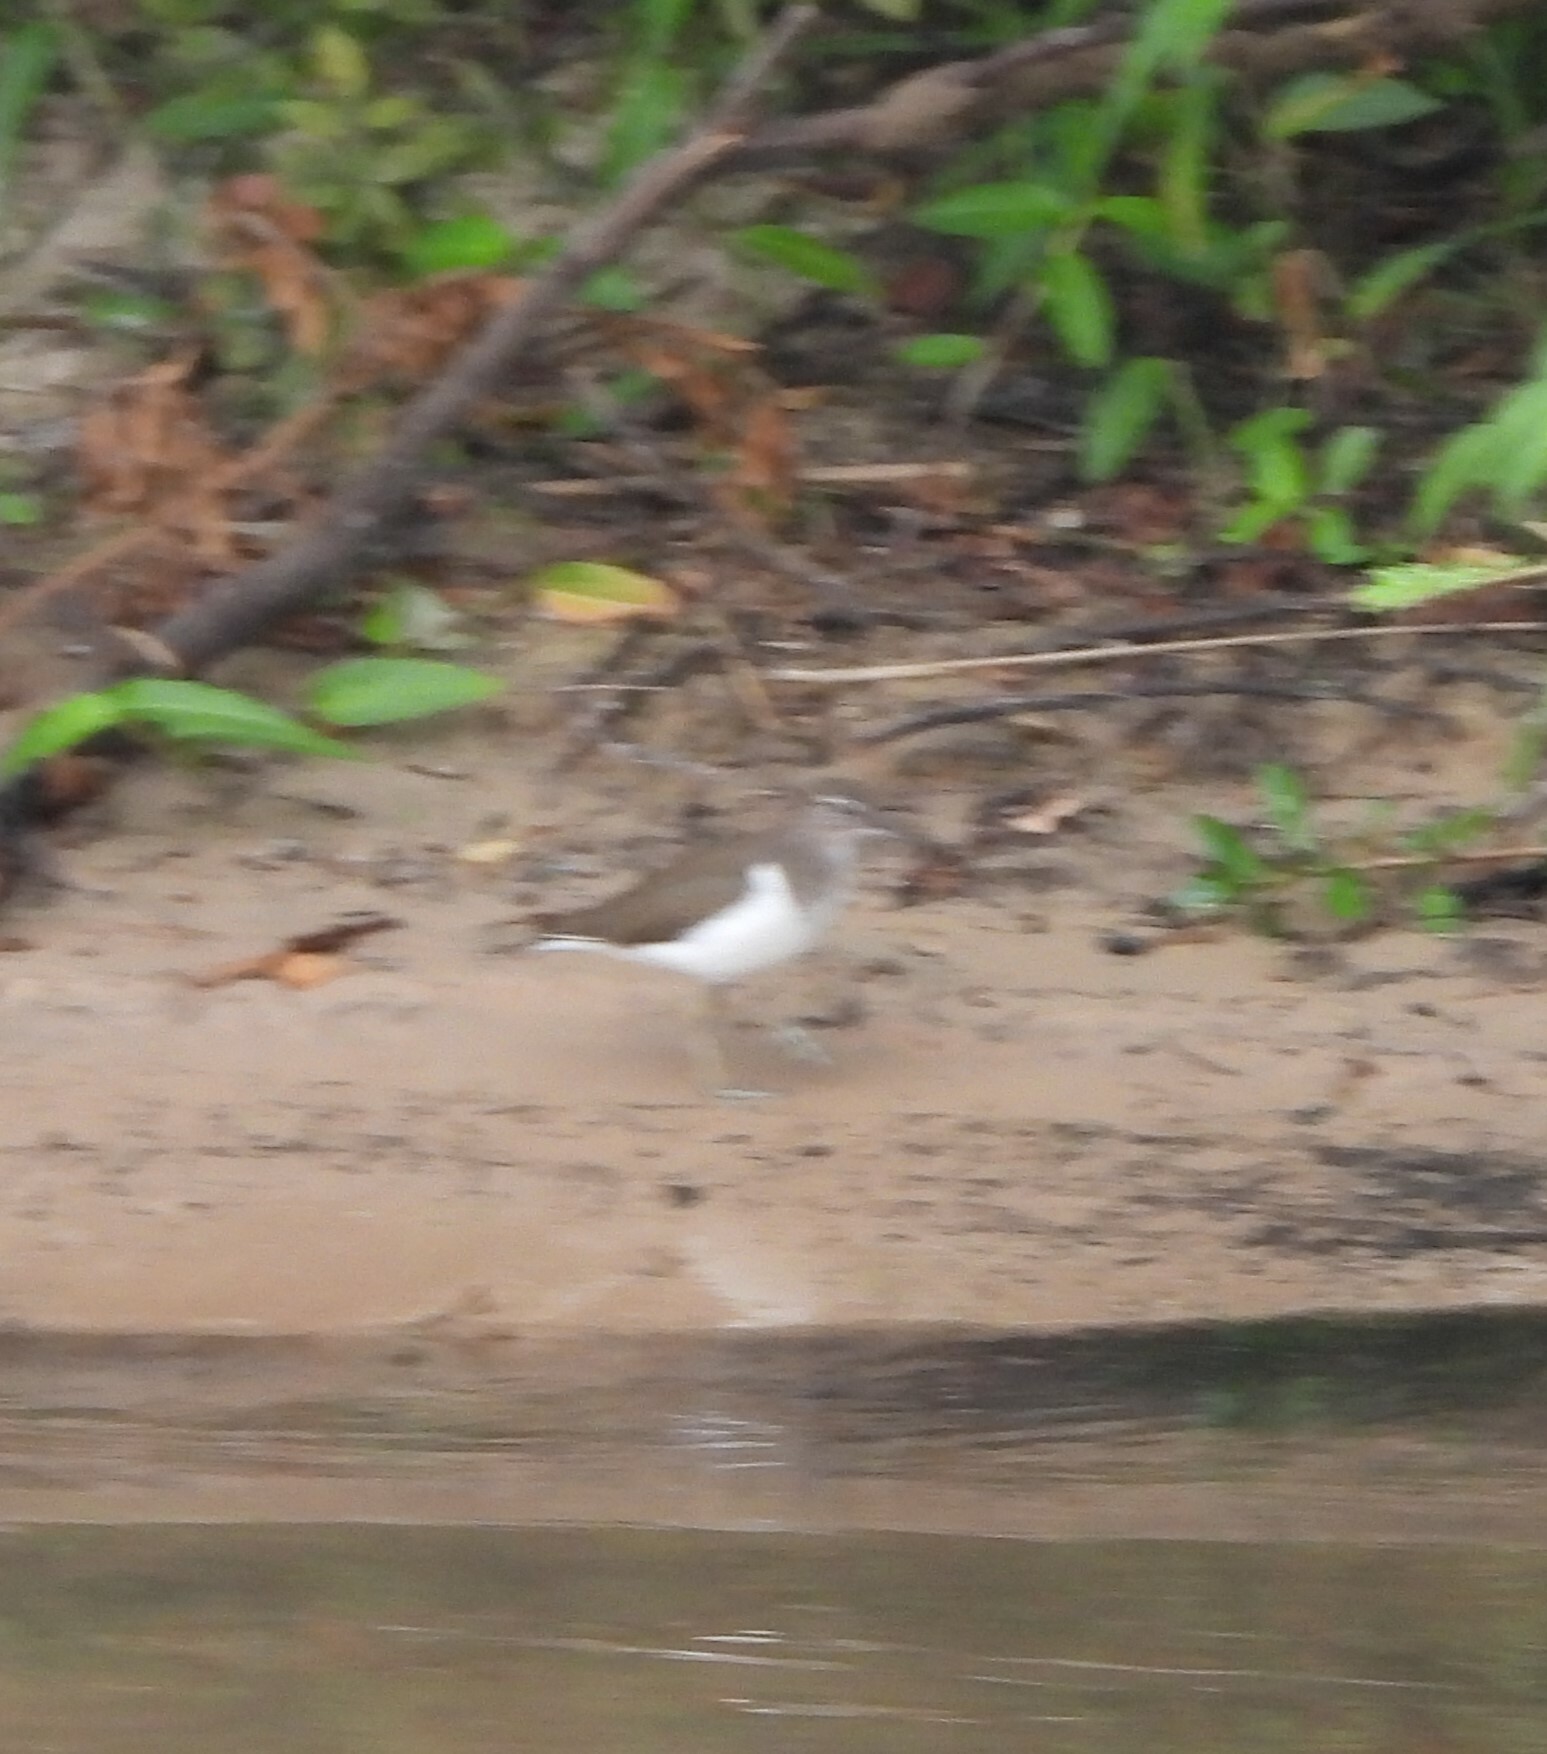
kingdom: Animalia
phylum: Chordata
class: Aves
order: Charadriiformes
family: Scolopacidae
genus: Actitis
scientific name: Actitis hypoleucos
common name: Common sandpiper
